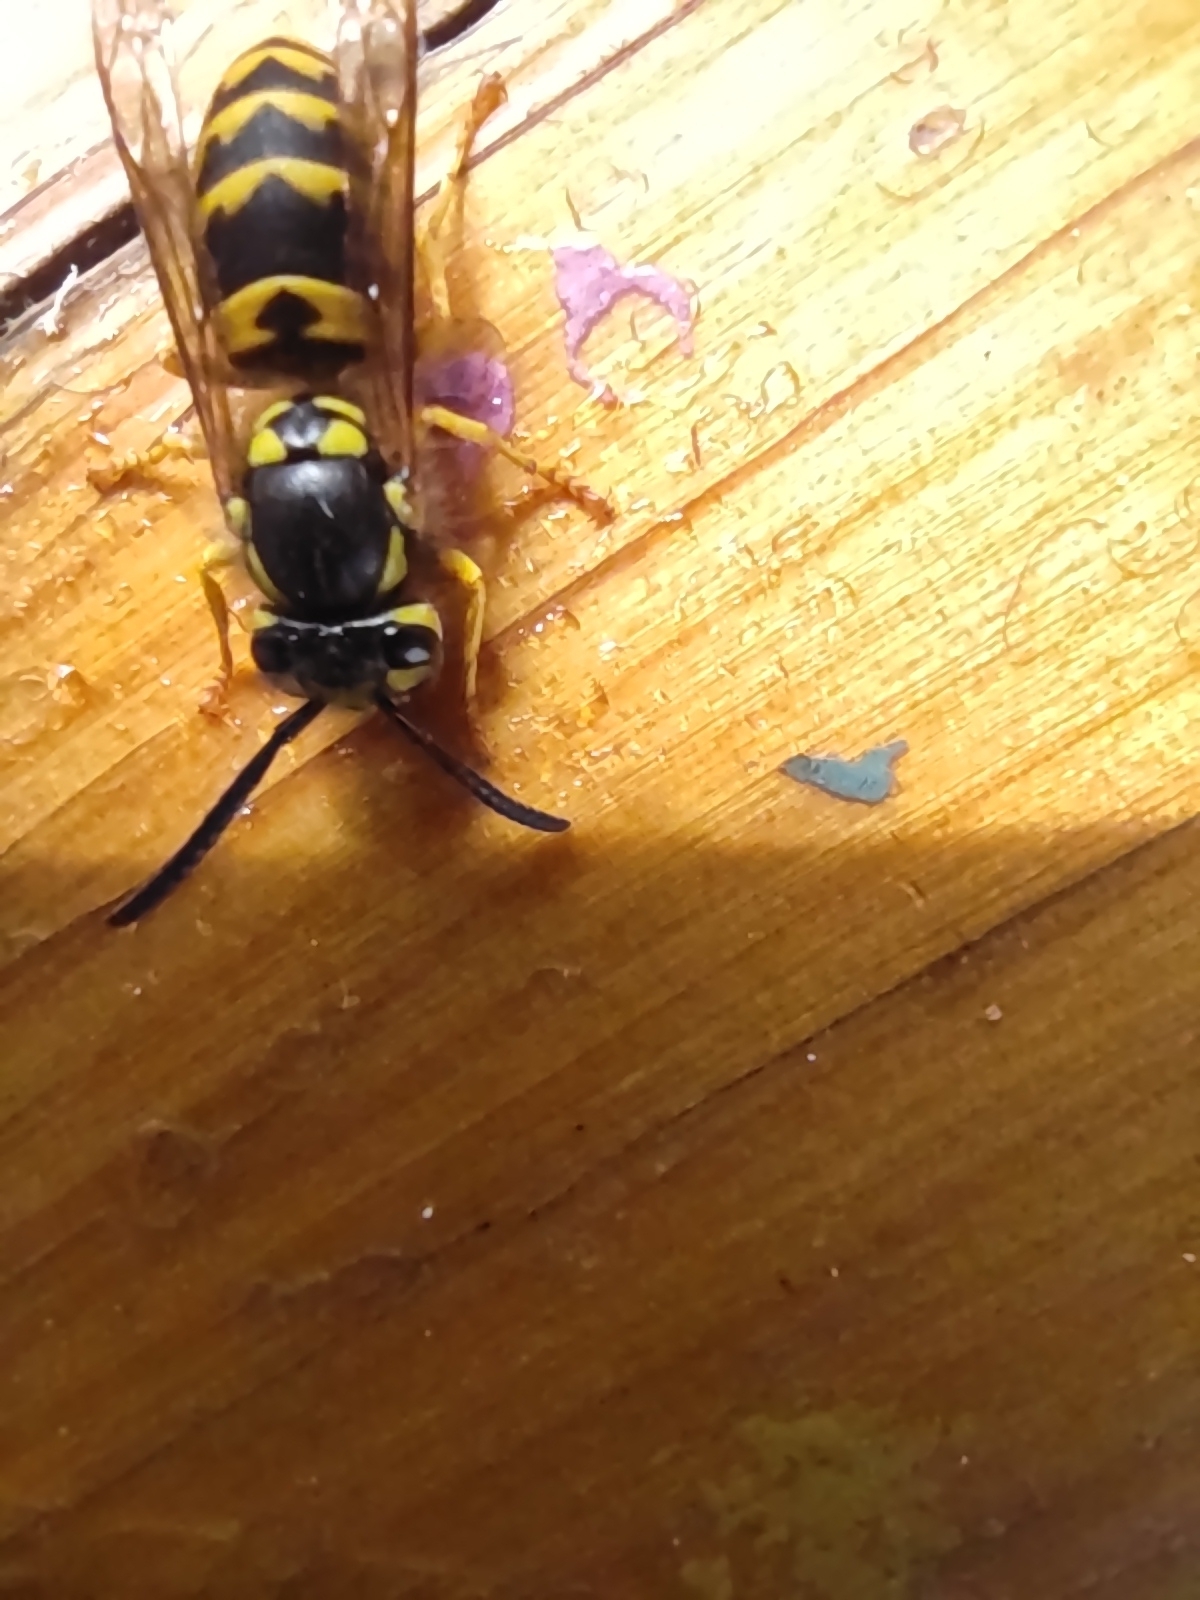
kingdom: Animalia
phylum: Arthropoda
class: Insecta
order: Hymenoptera
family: Vespidae
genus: Vespula
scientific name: Vespula germanica
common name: German wasp
